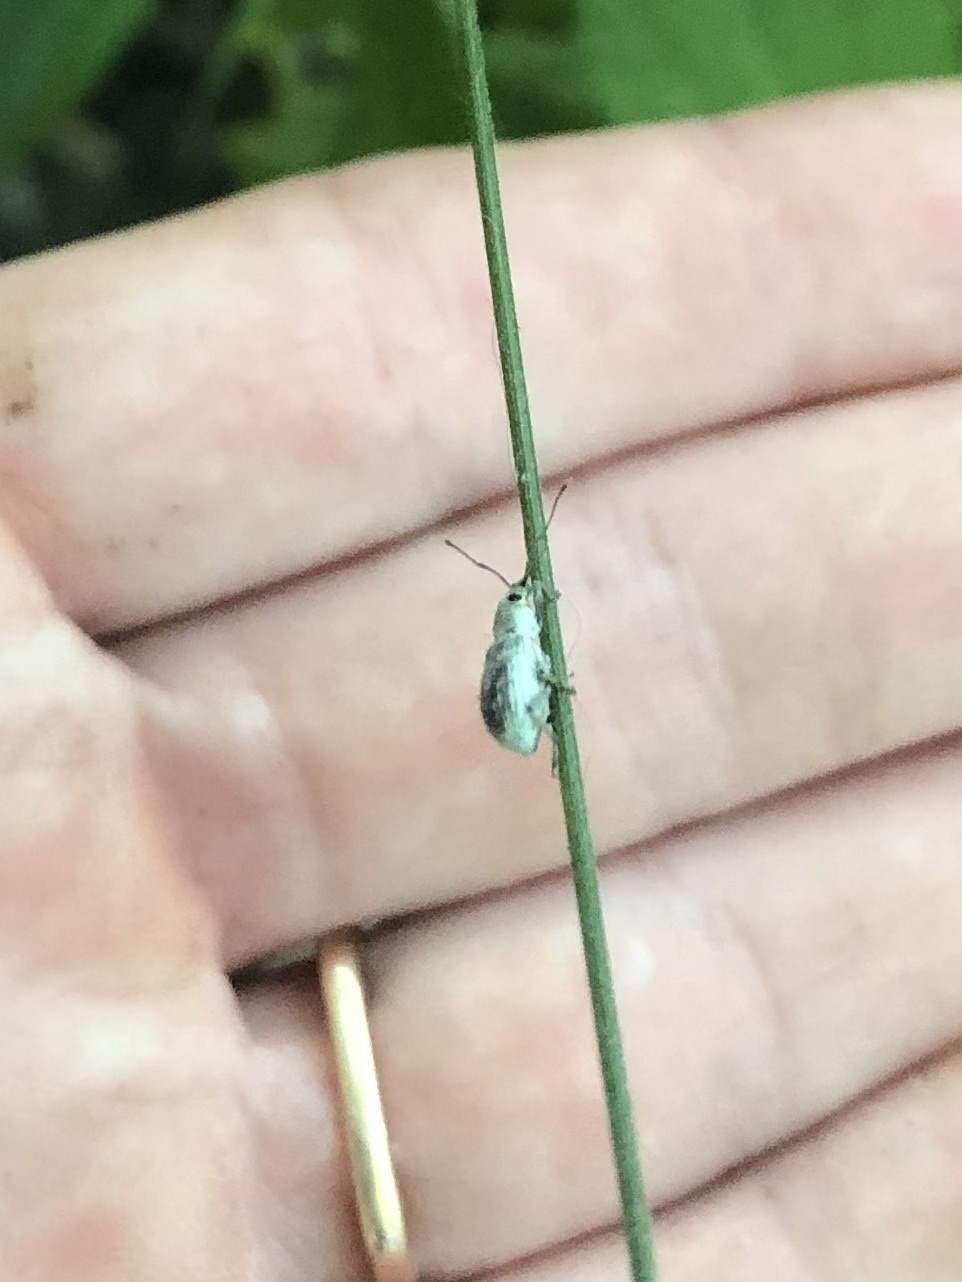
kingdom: Animalia
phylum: Arthropoda
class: Insecta
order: Coleoptera
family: Curculionidae
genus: Cyrtepistomus
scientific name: Cyrtepistomus castaneus
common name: Weevil
